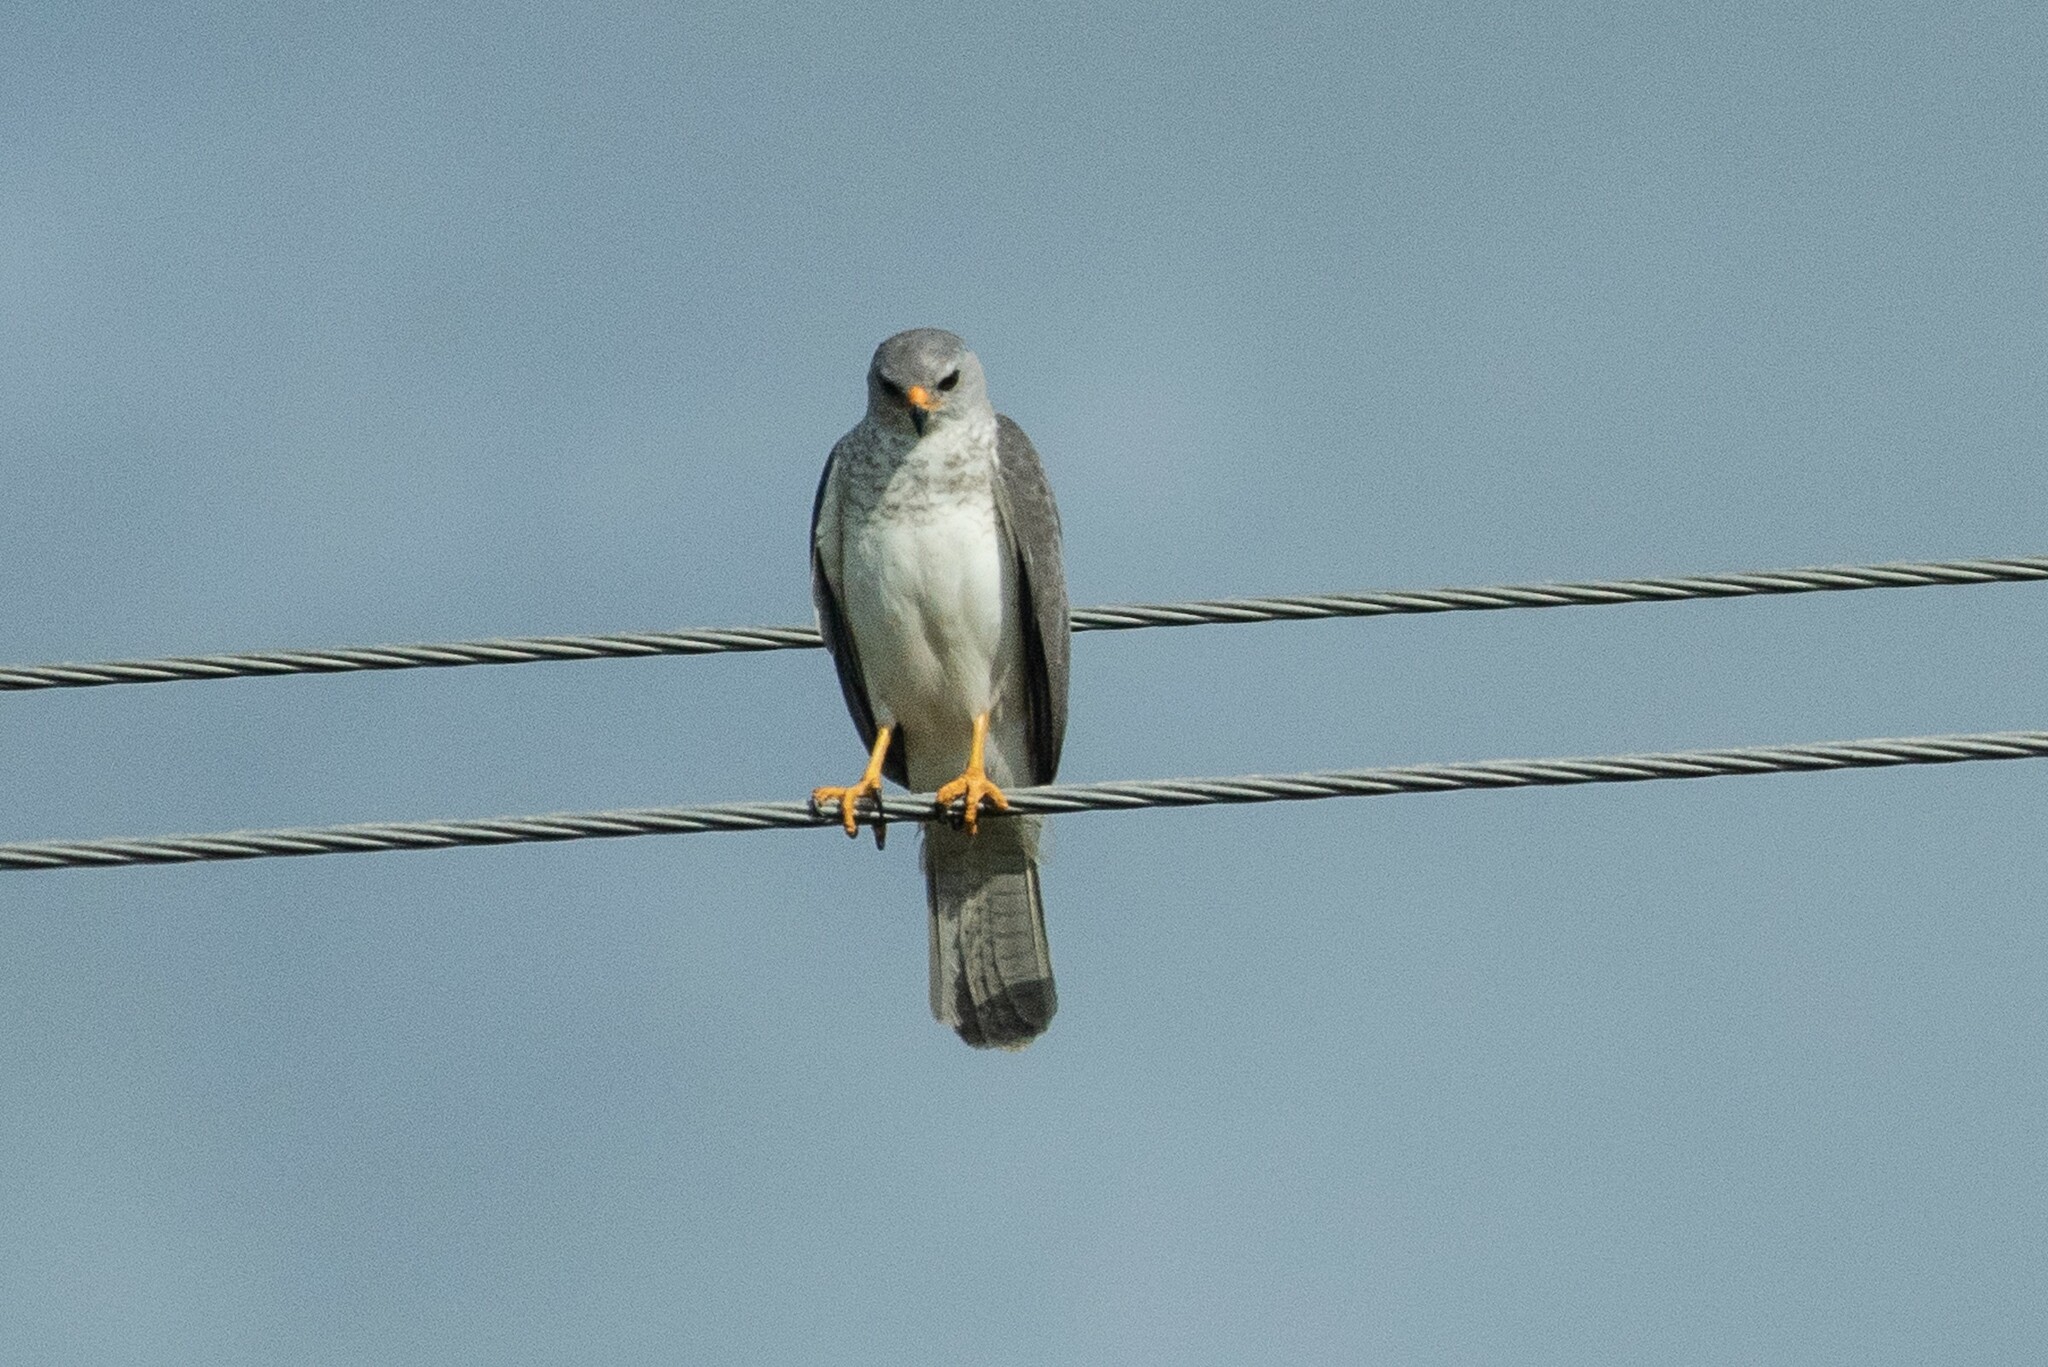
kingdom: Animalia
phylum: Chordata
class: Aves
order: Accipitriformes
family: Accipitridae
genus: Accipiter
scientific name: Accipiter novaehollandiae
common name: Grey goshawk
